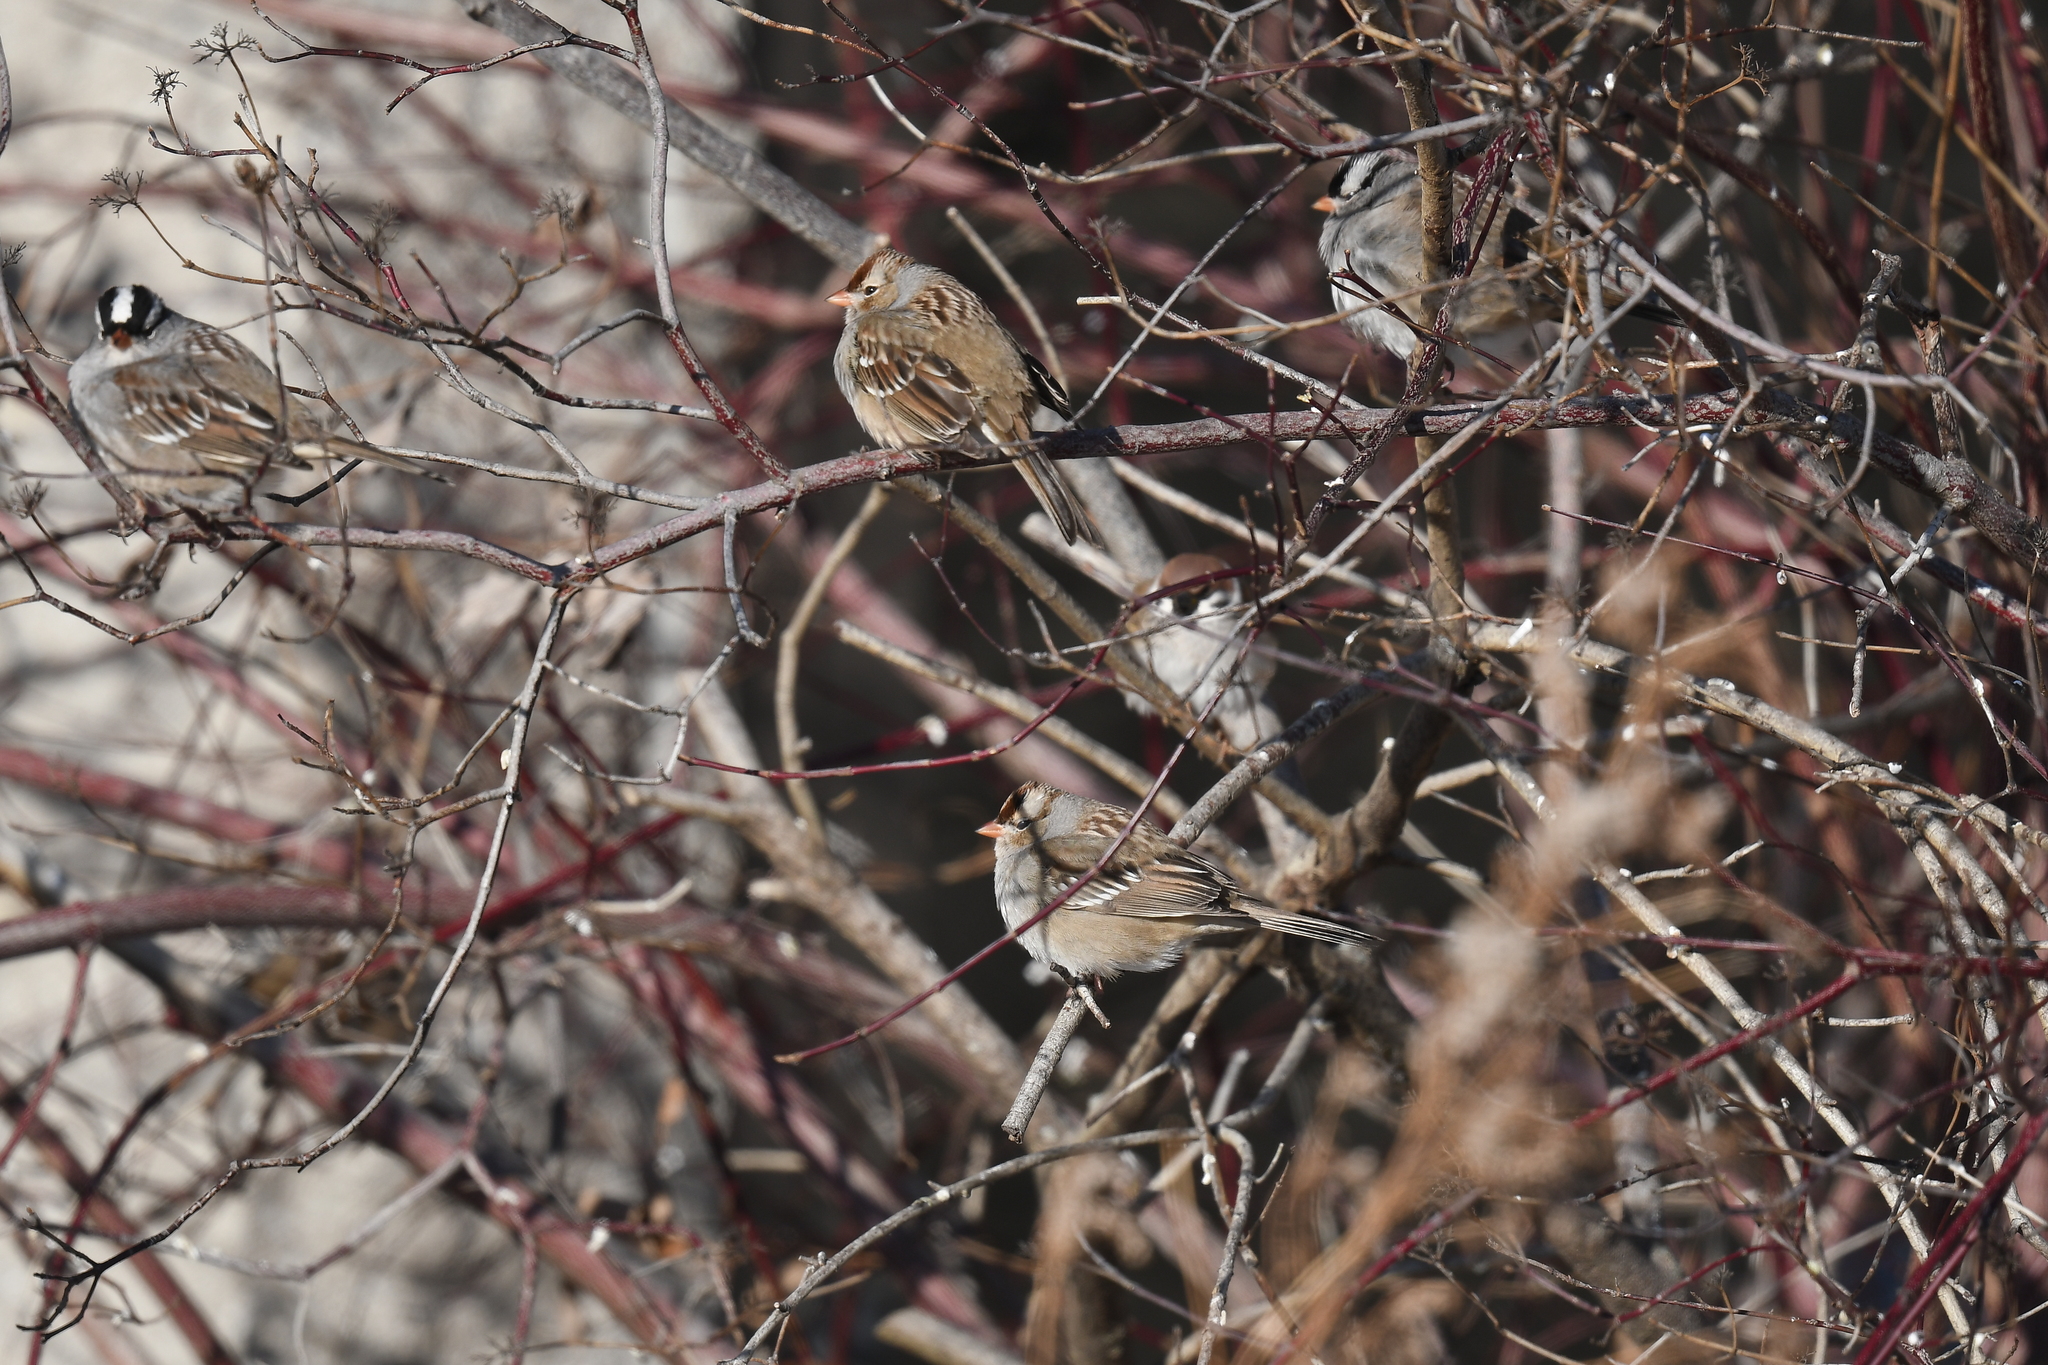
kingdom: Animalia
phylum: Chordata
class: Aves
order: Passeriformes
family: Passerellidae
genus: Zonotrichia
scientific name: Zonotrichia leucophrys
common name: White-crowned sparrow
